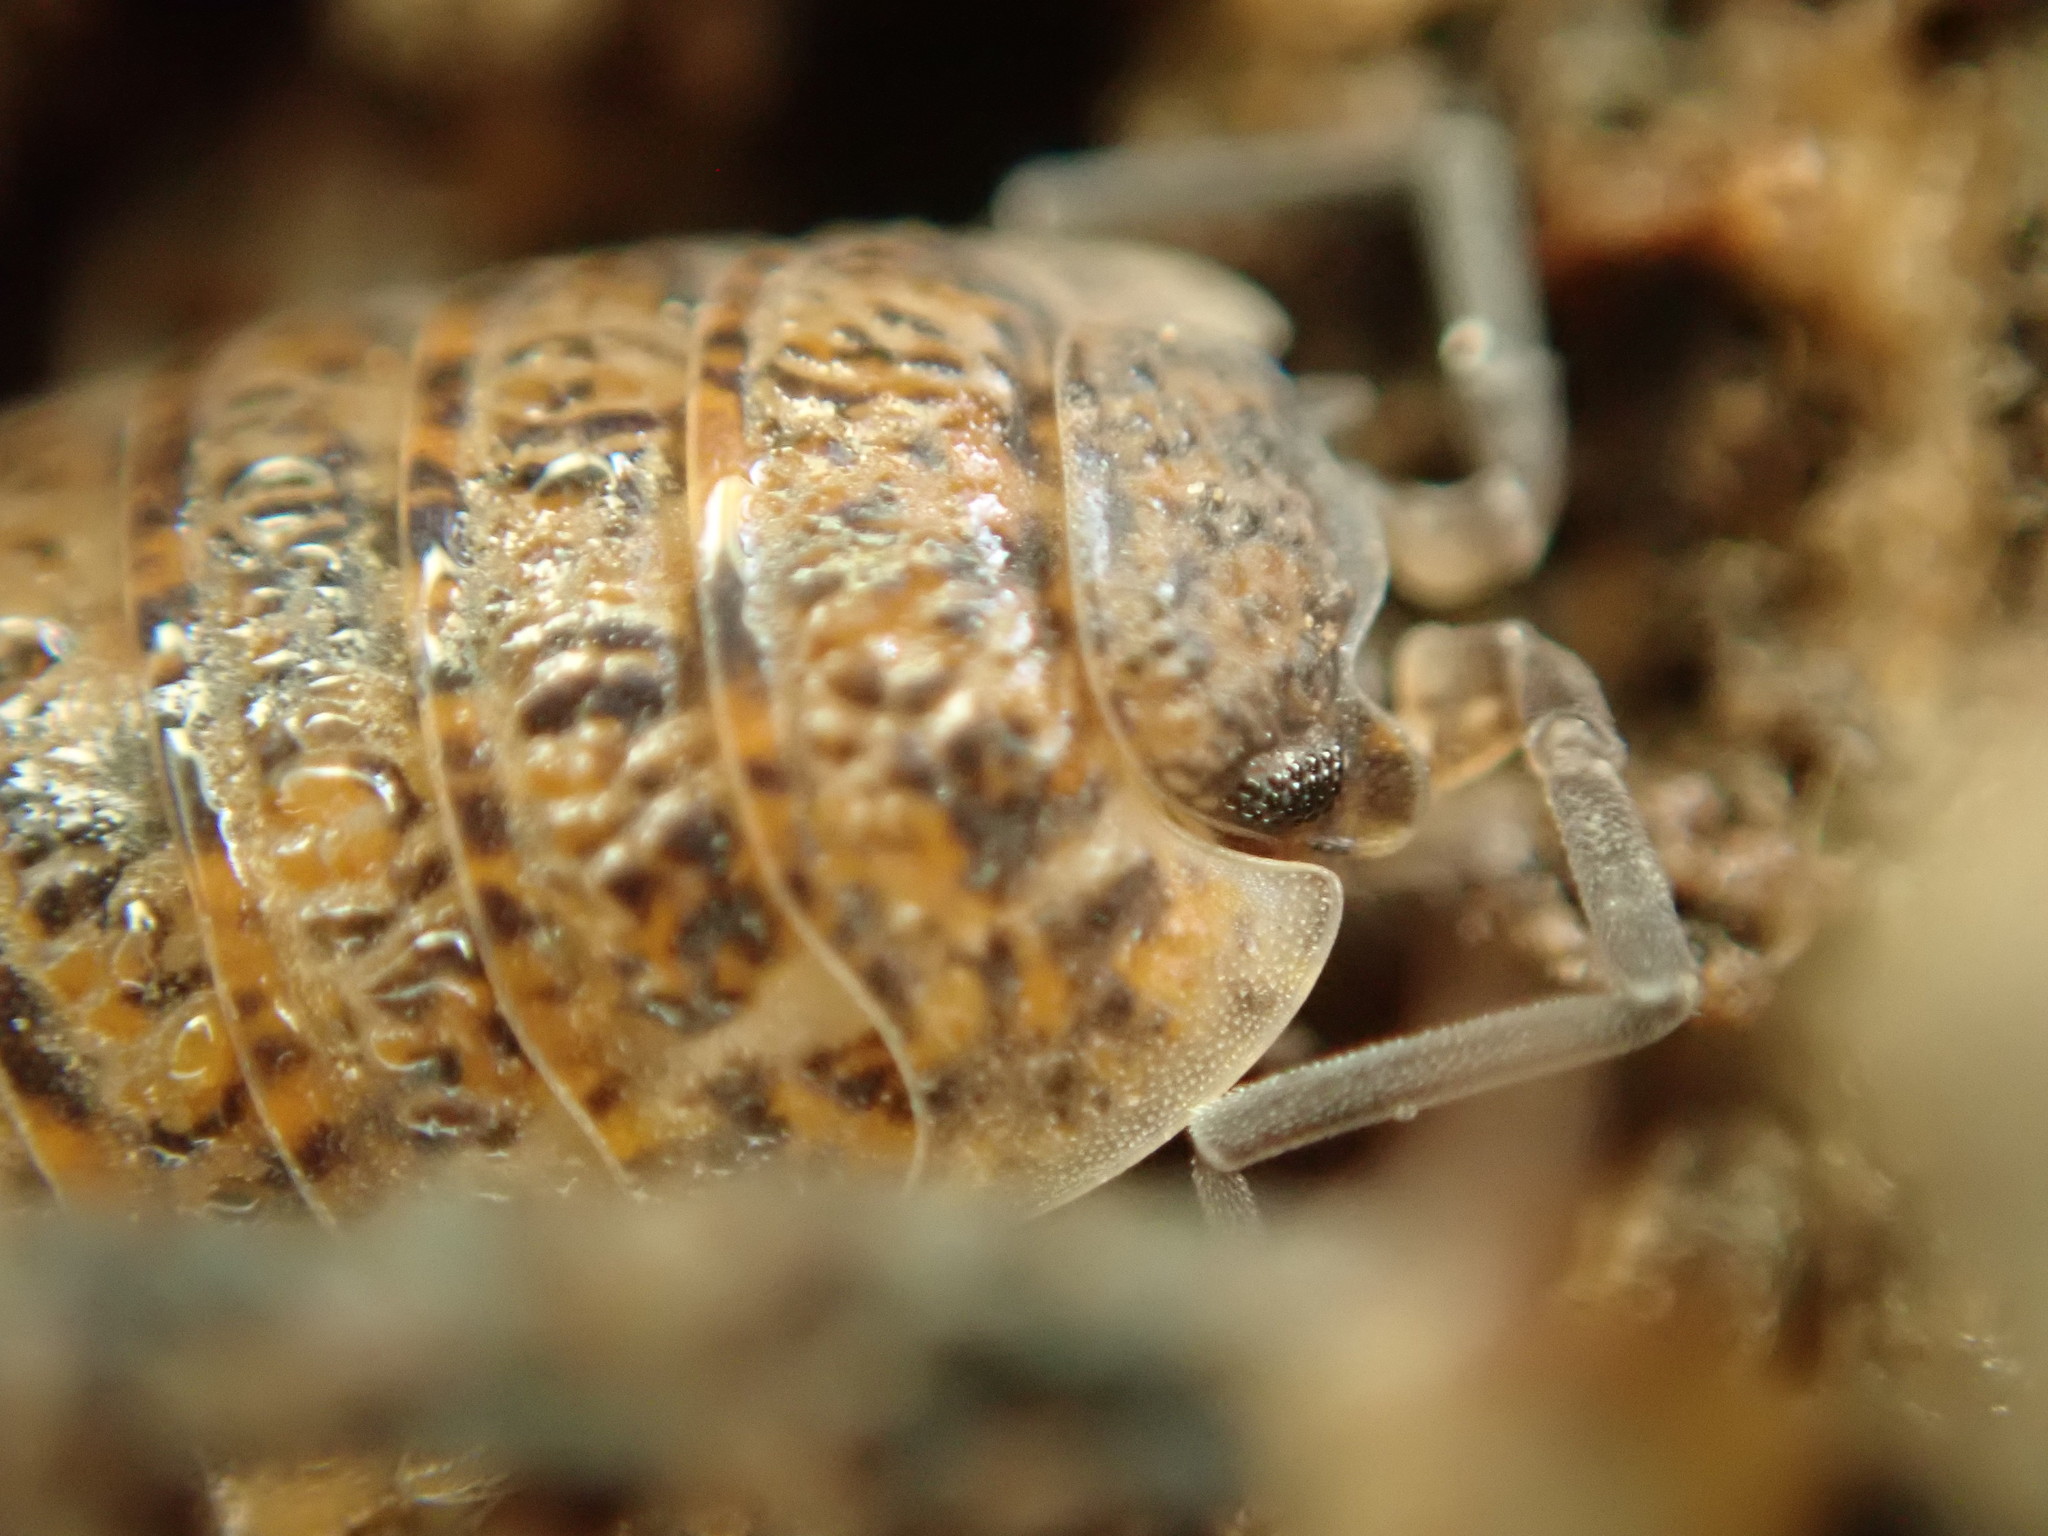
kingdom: Animalia
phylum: Arthropoda
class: Malacostraca
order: Isopoda
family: Trachelipodidae
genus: Trachelipus
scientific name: Trachelipus rathkii
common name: Isopod
